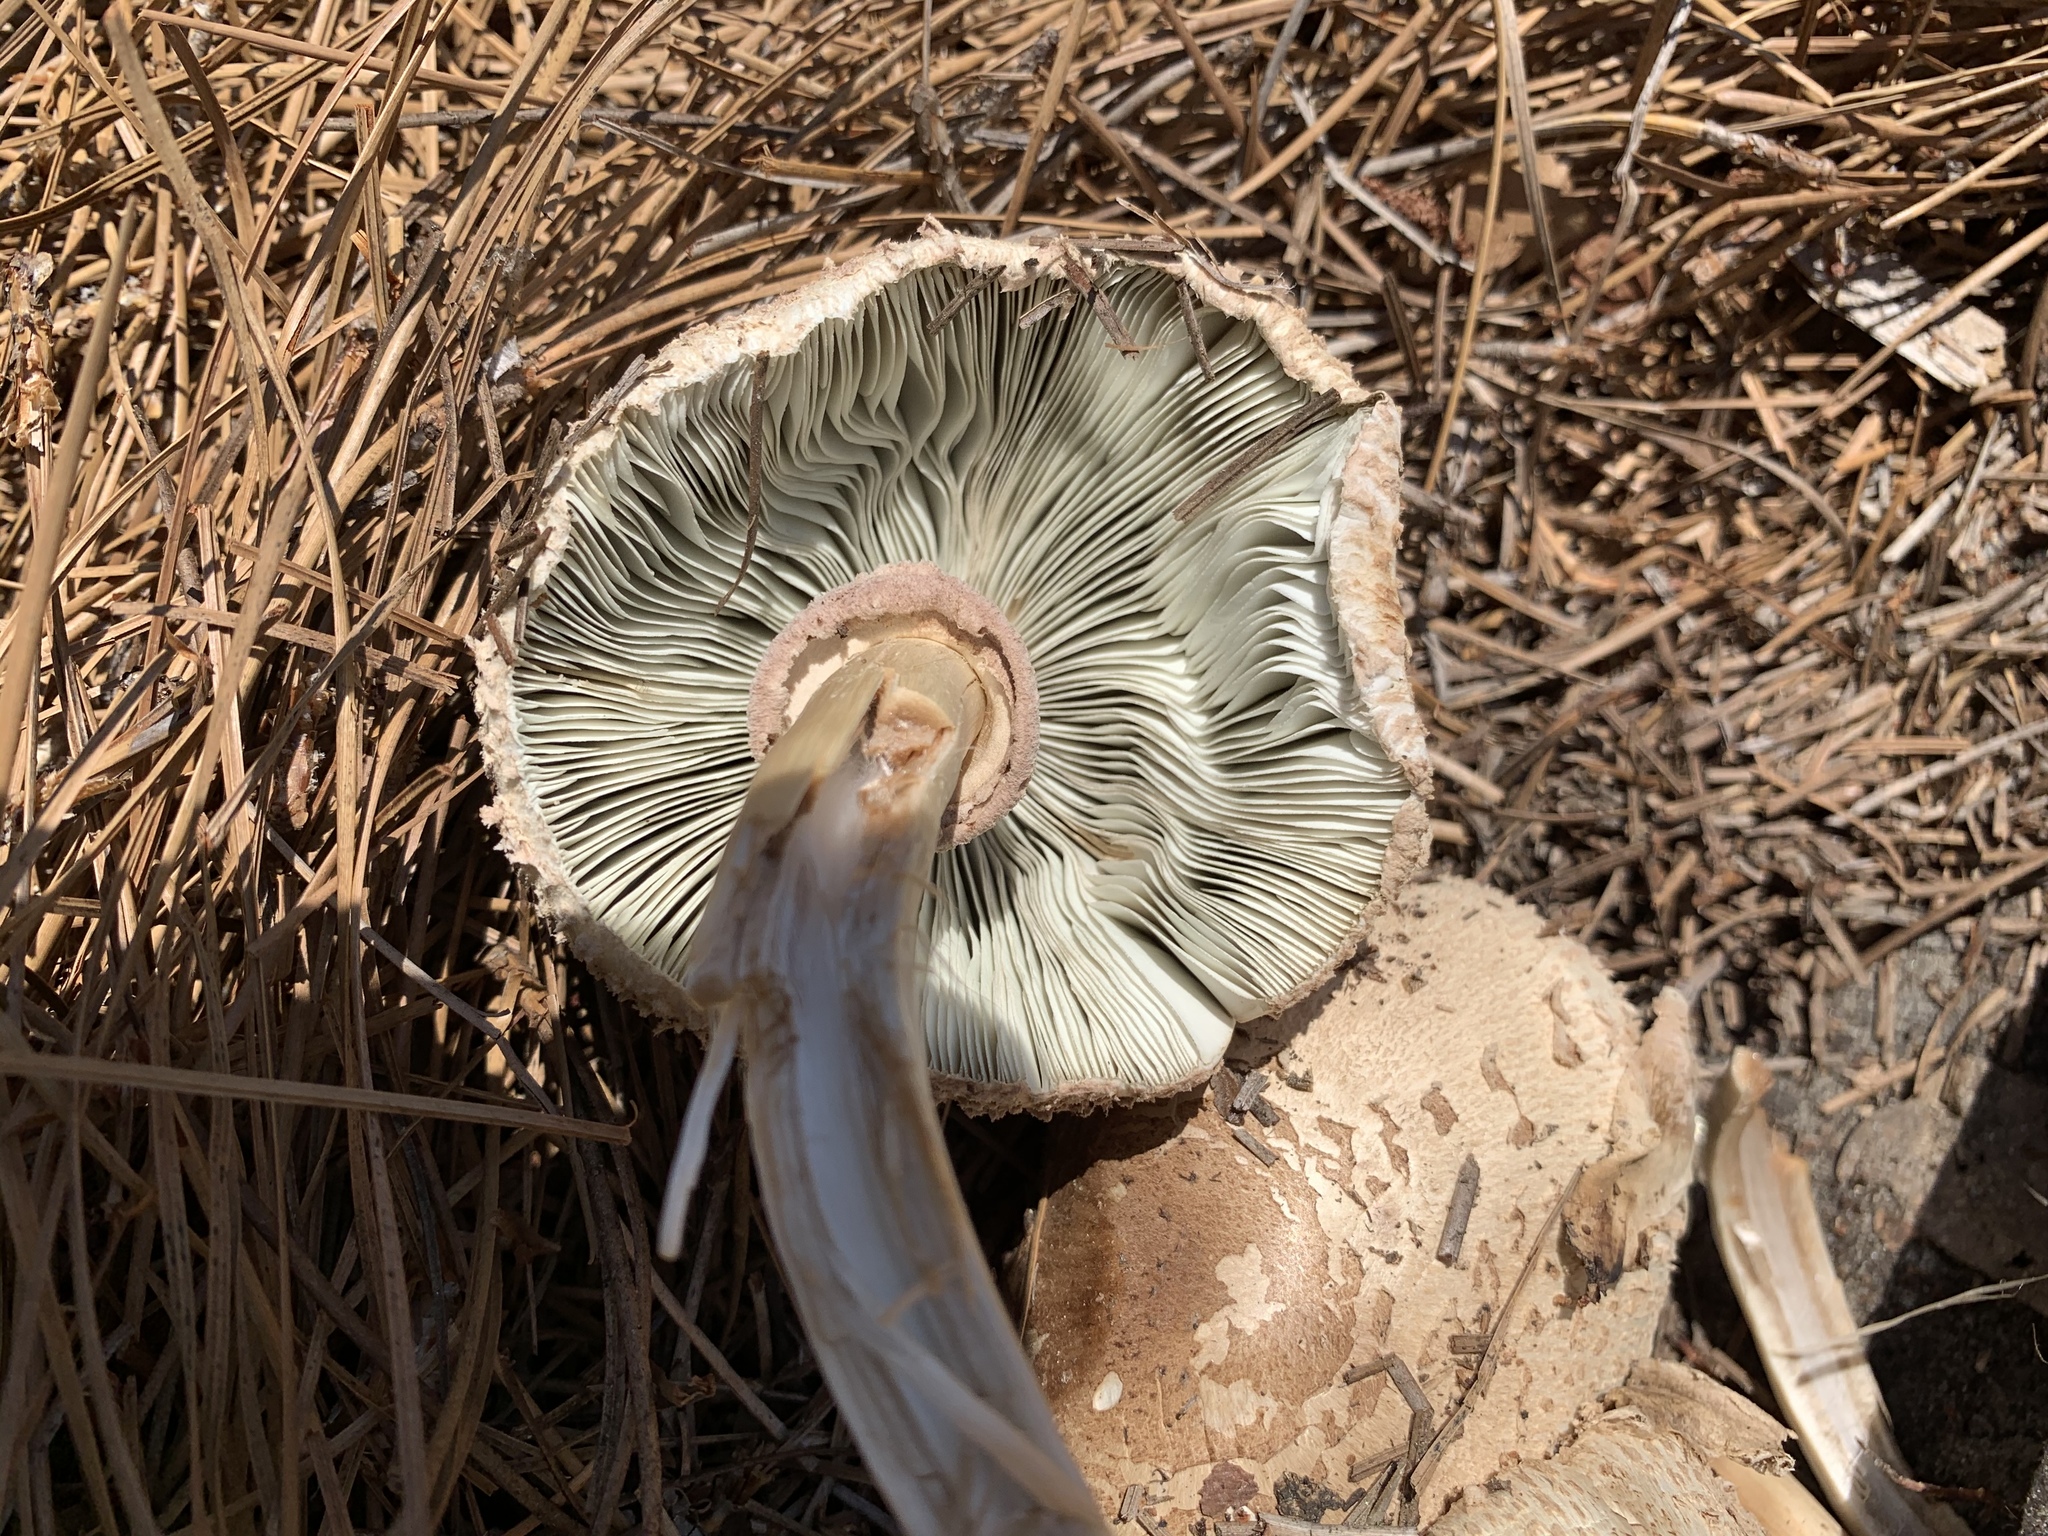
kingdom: Fungi
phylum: Basidiomycota
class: Agaricomycetes
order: Agaricales
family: Agaricaceae
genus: Chlorophyllum
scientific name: Chlorophyllum molybdites
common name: False parasol
